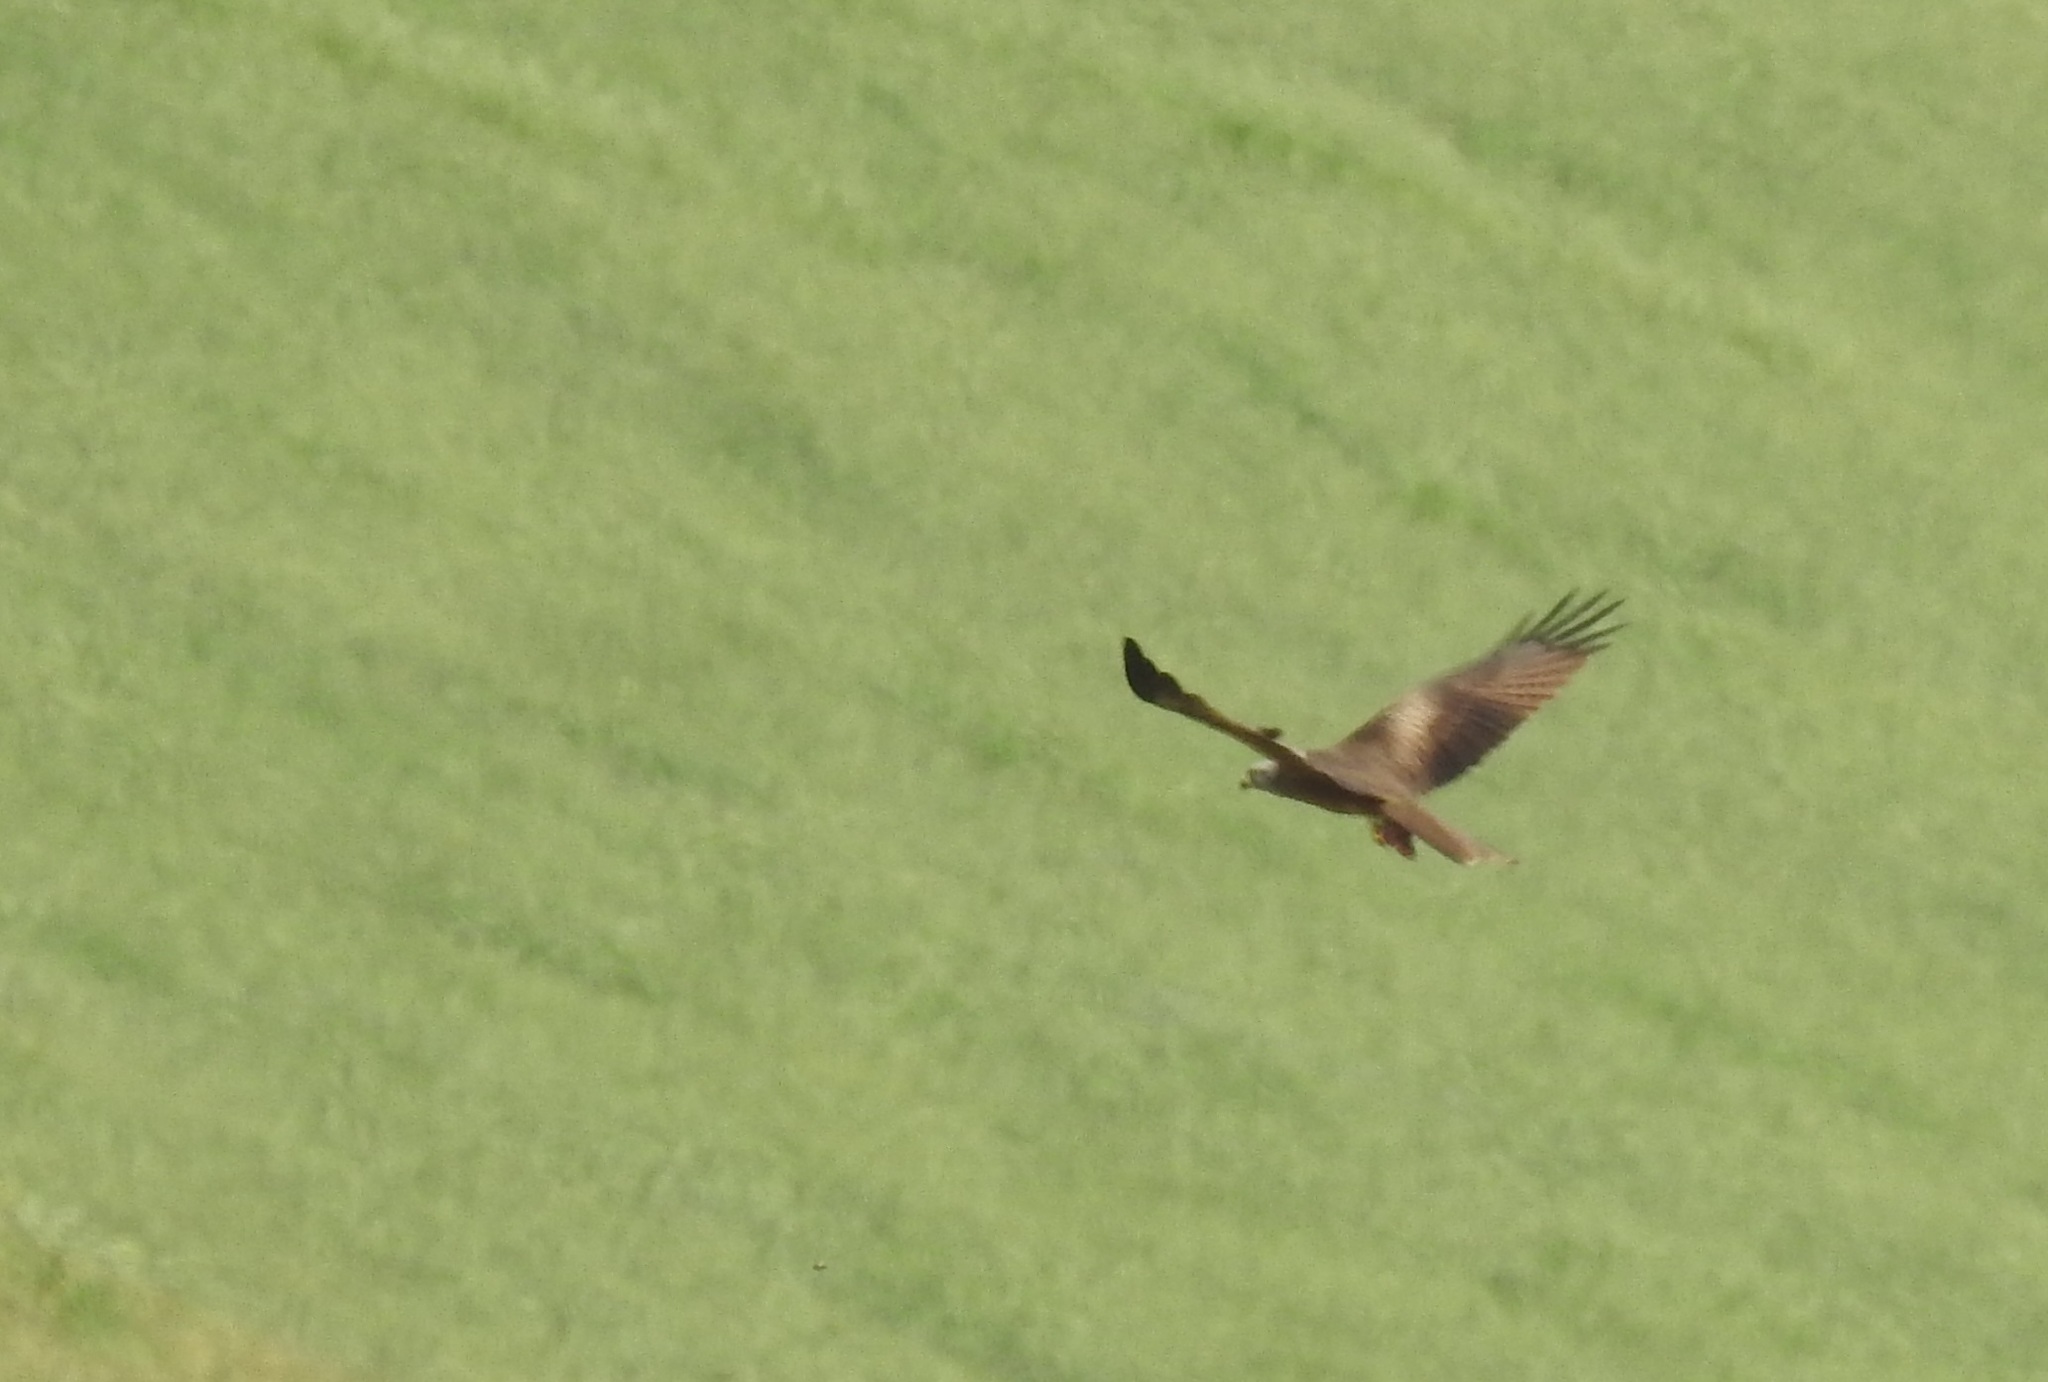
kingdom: Animalia
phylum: Chordata
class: Aves
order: Accipitriformes
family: Accipitridae
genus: Milvus
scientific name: Milvus migrans
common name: Black kite
